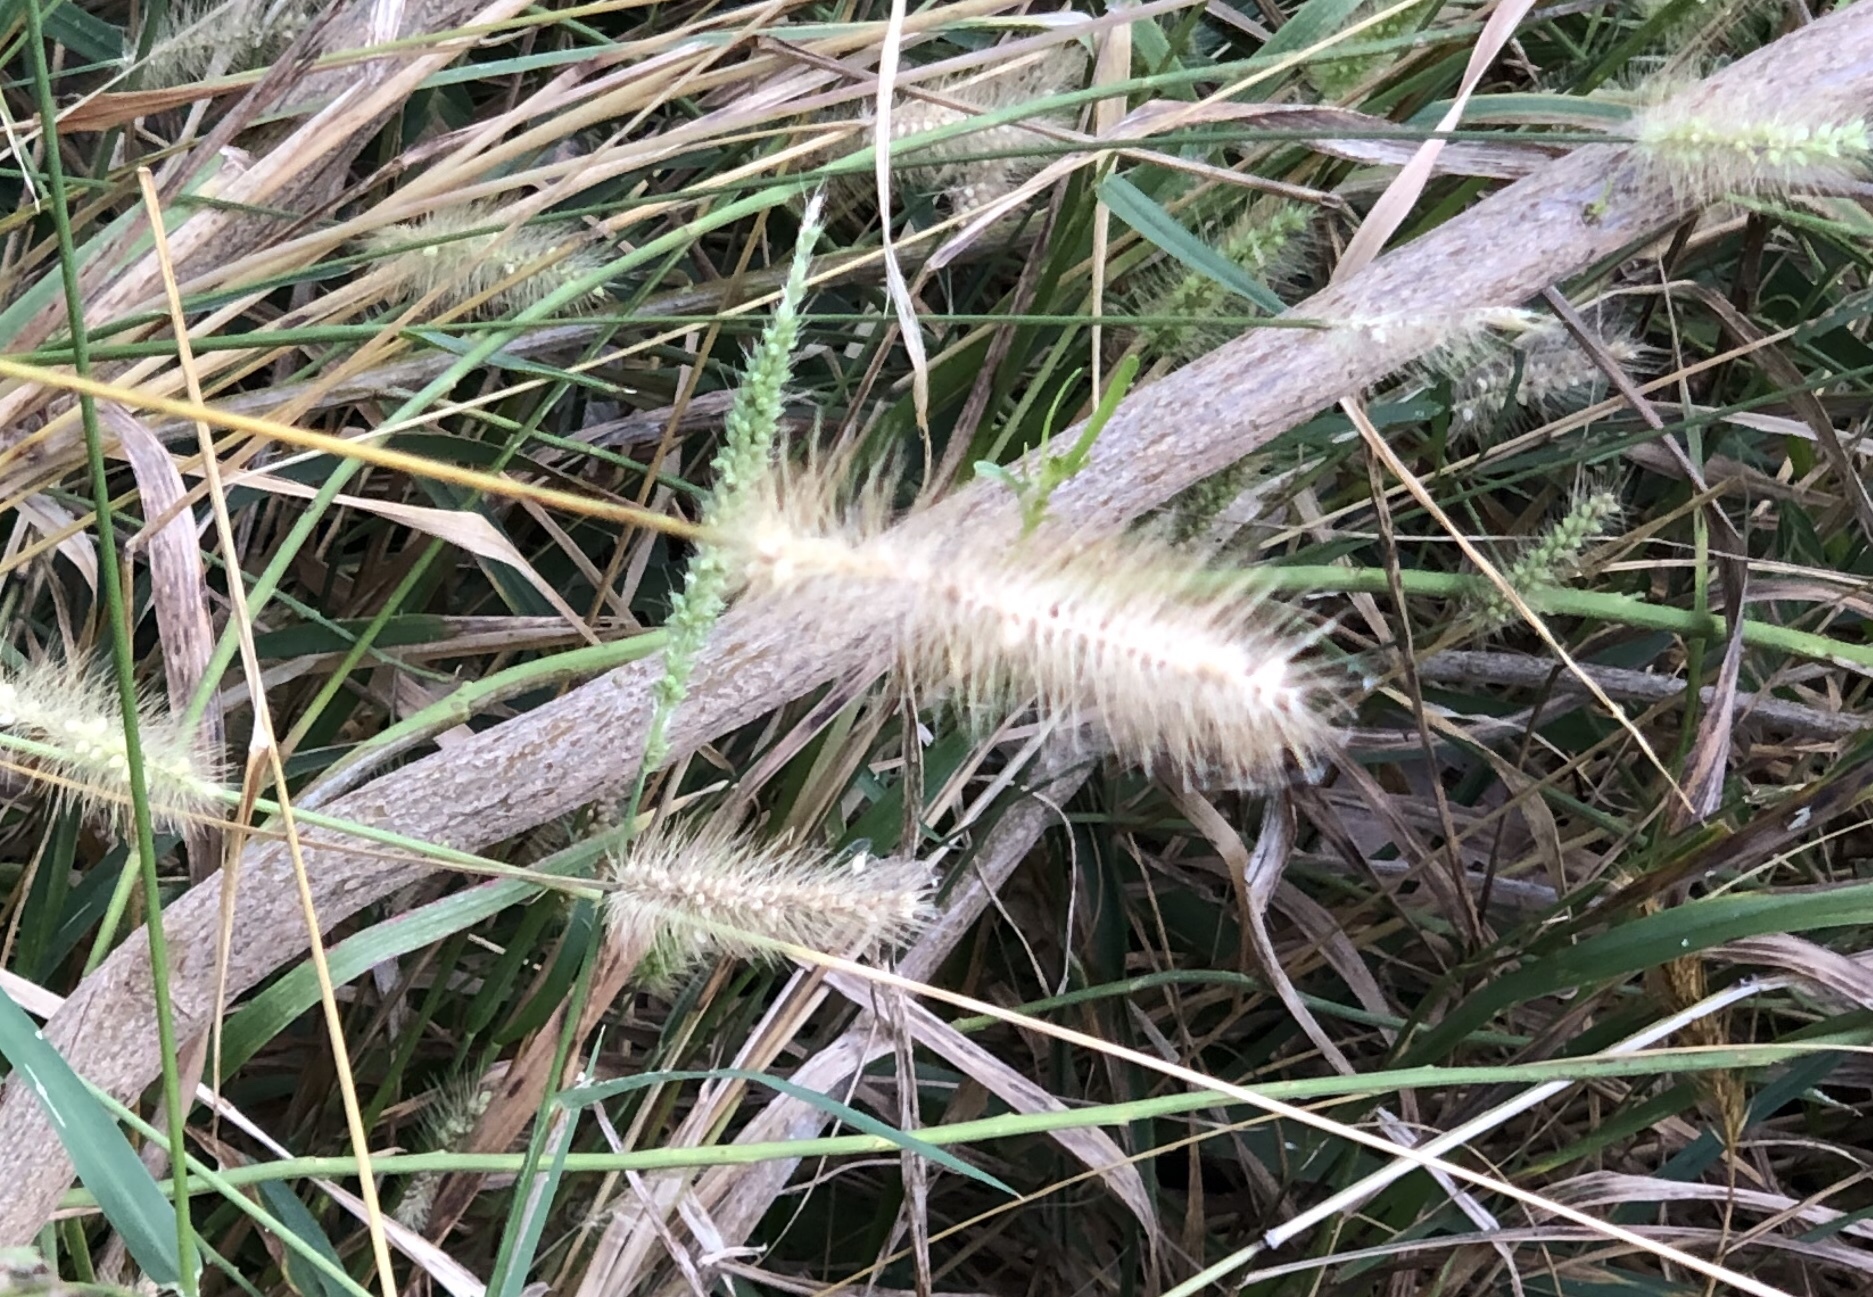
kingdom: Plantae
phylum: Tracheophyta
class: Liliopsida
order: Poales
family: Poaceae
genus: Setaria
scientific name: Setaria parviflora
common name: Knotroot bristle-grass
